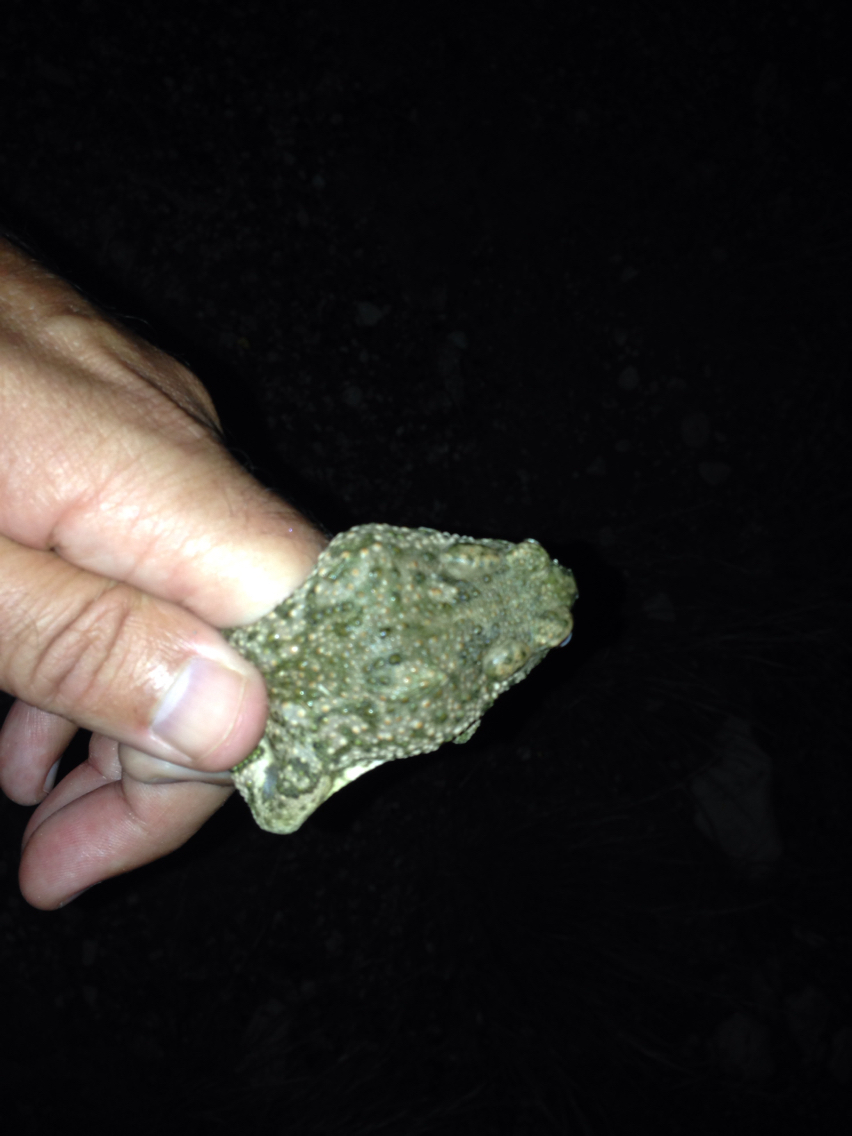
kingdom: Animalia
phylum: Chordata
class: Amphibia
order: Anura
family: Bufonidae
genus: Anaxyrus
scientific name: Anaxyrus speciosus
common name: Texas toad
